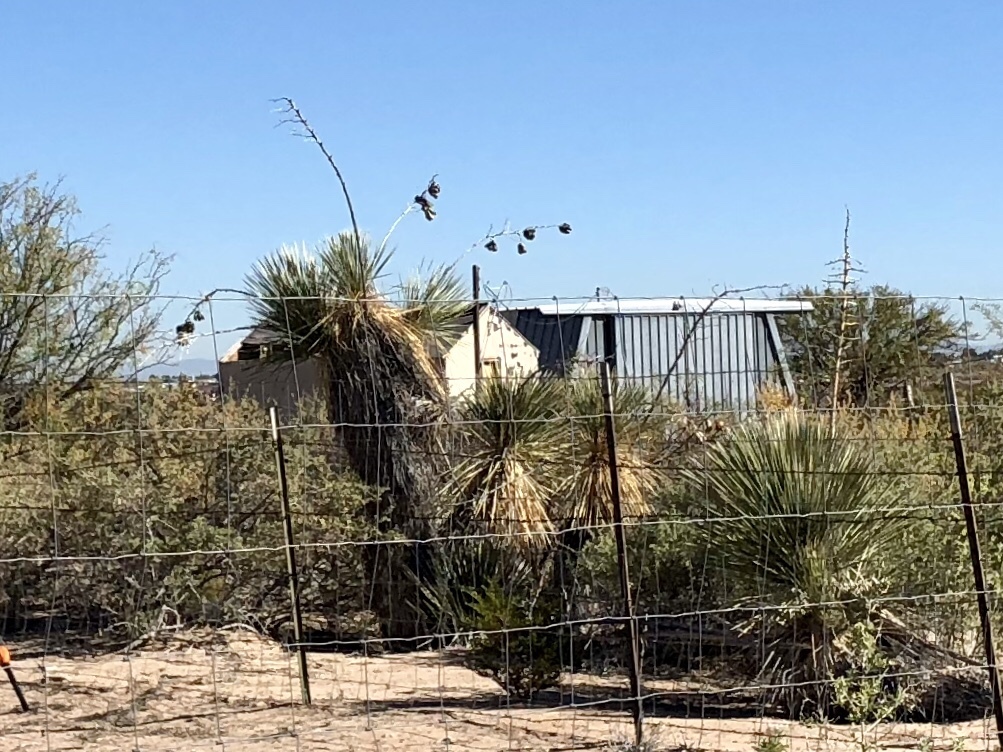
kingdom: Plantae
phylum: Tracheophyta
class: Liliopsida
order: Asparagales
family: Asparagaceae
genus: Yucca
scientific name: Yucca elata
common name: Palmella
